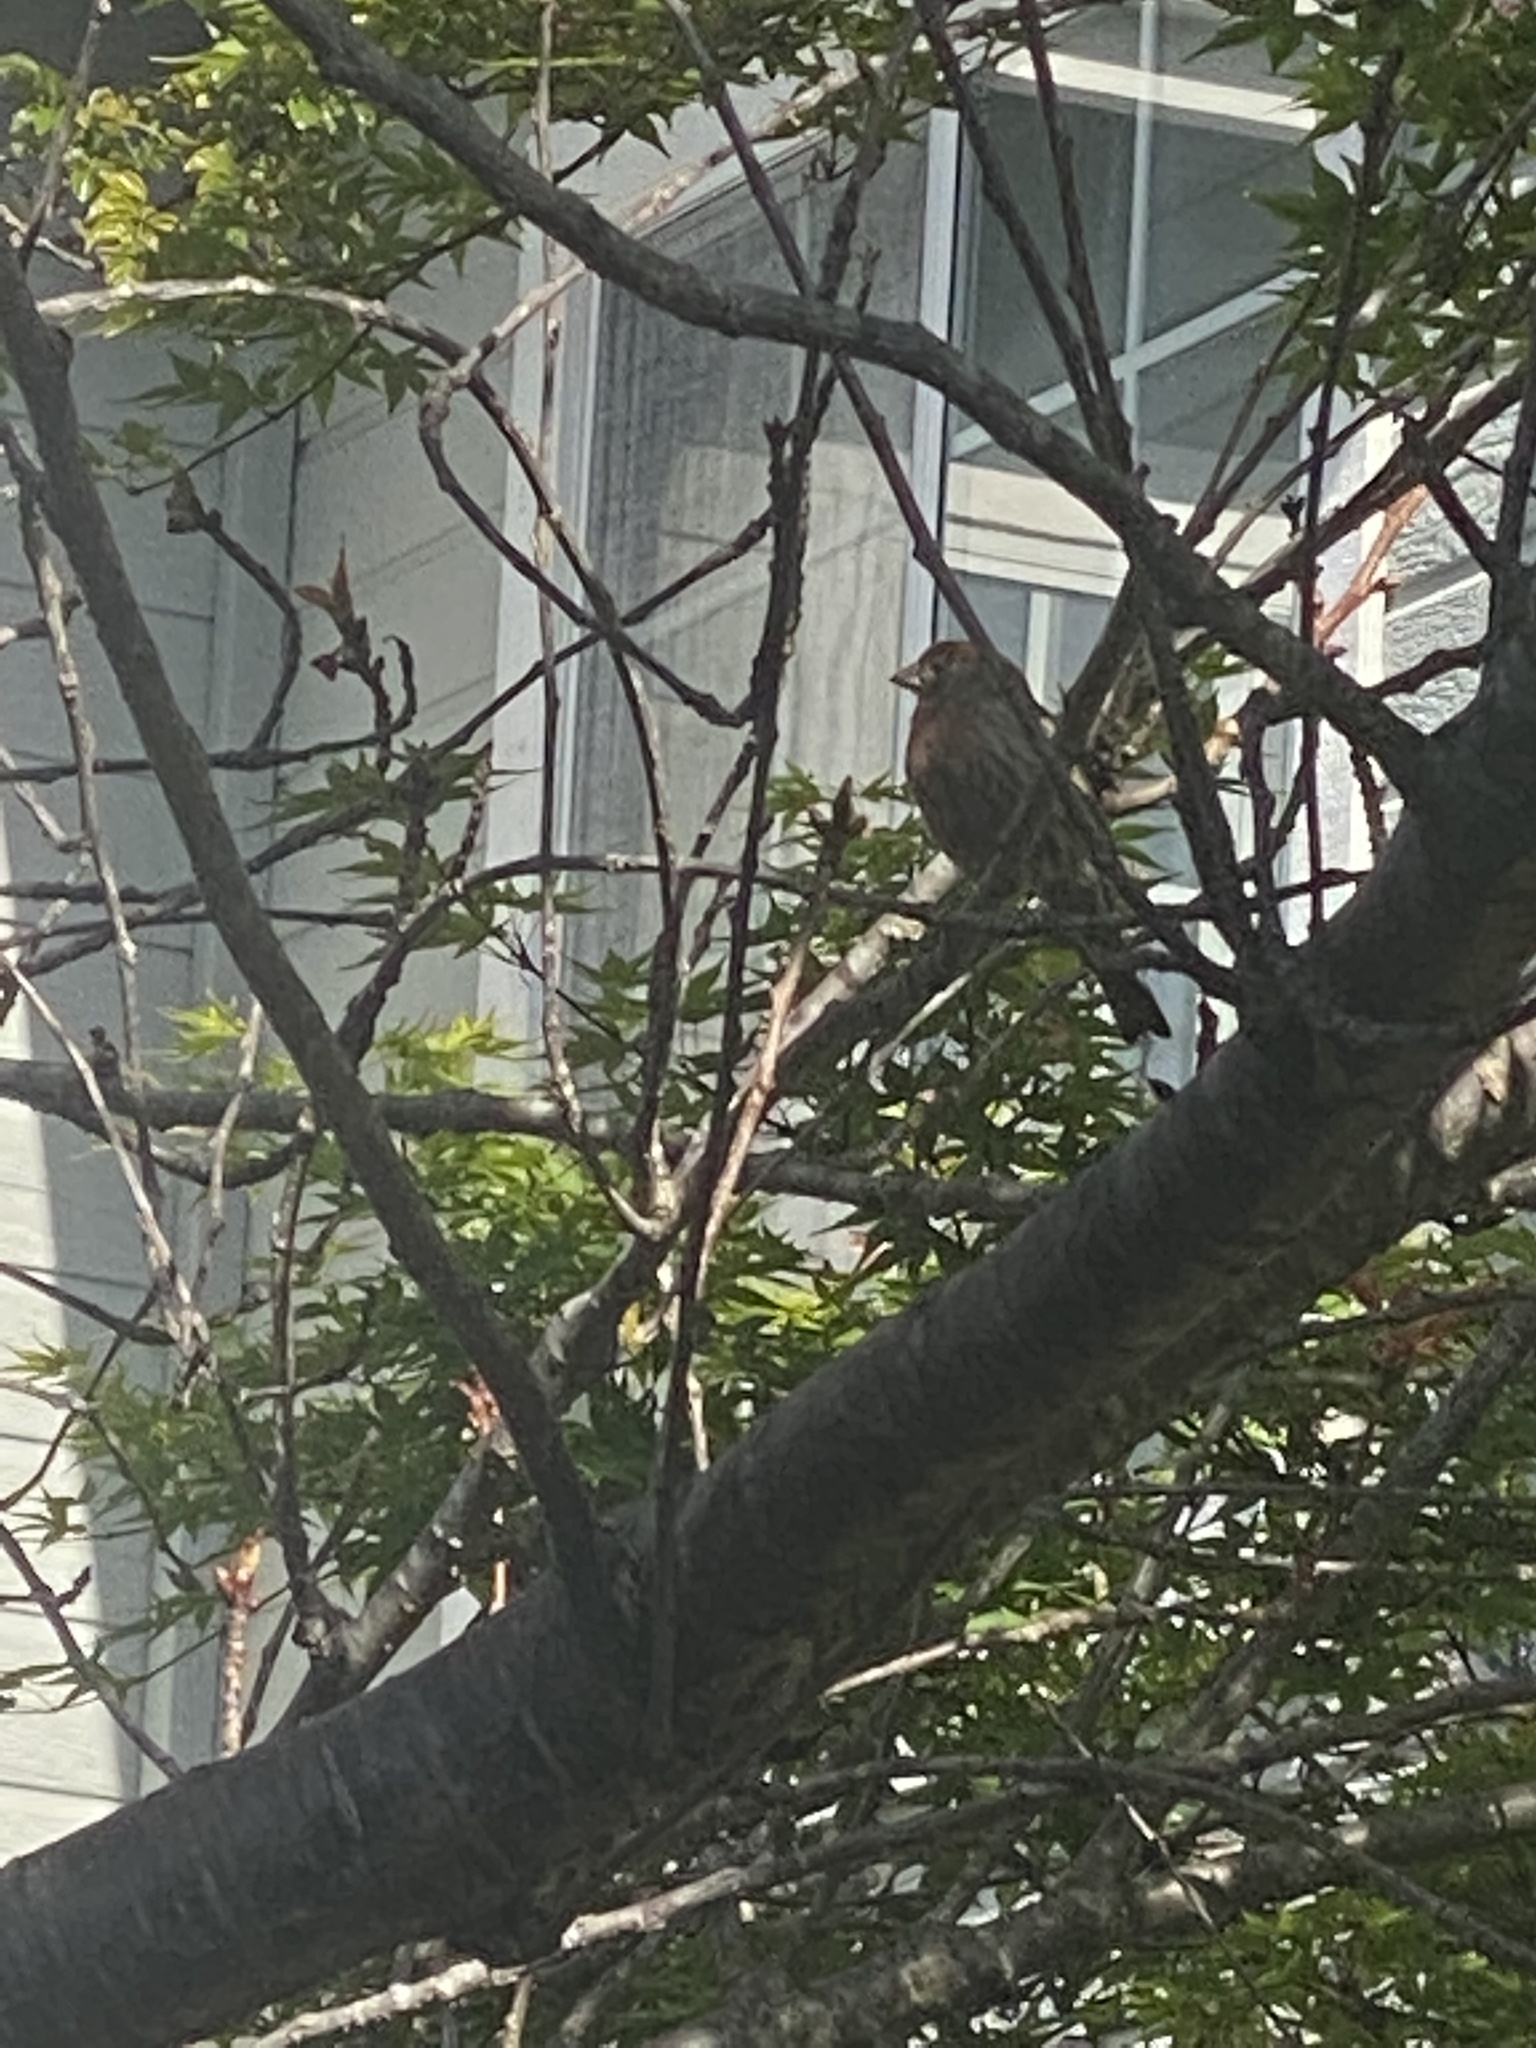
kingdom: Animalia
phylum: Chordata
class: Aves
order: Passeriformes
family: Fringillidae
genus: Haemorhous
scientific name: Haemorhous mexicanus
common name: House finch
